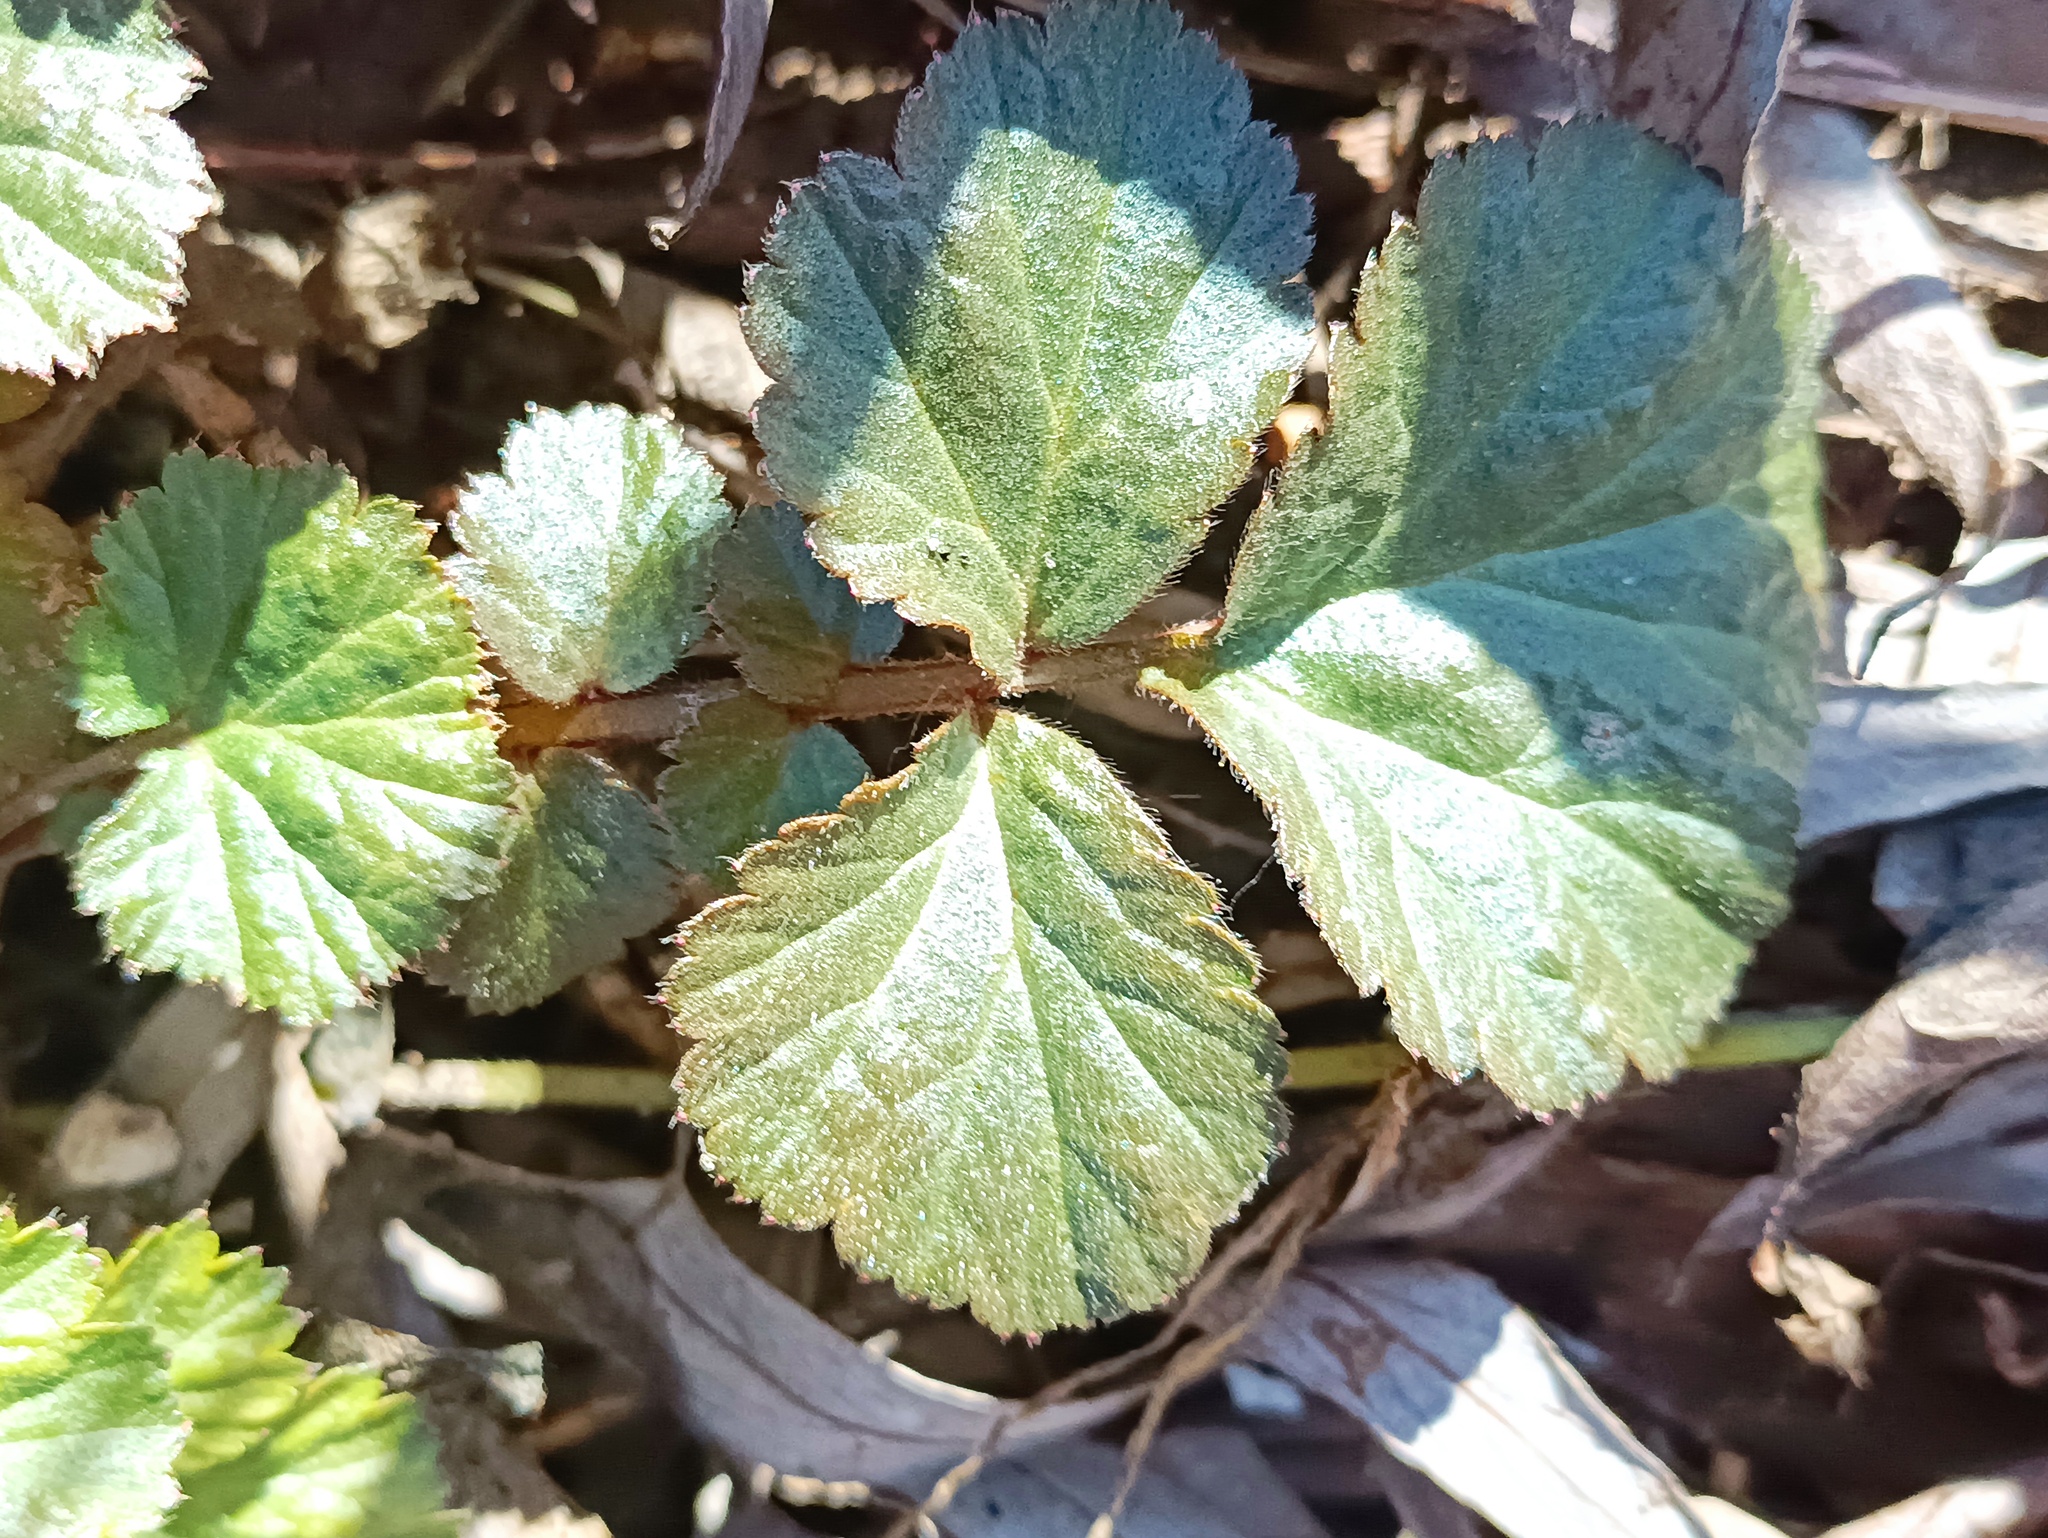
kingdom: Plantae
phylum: Tracheophyta
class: Magnoliopsida
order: Rosales
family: Rosaceae
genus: Geum
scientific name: Geum urbanum
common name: Wood avens
